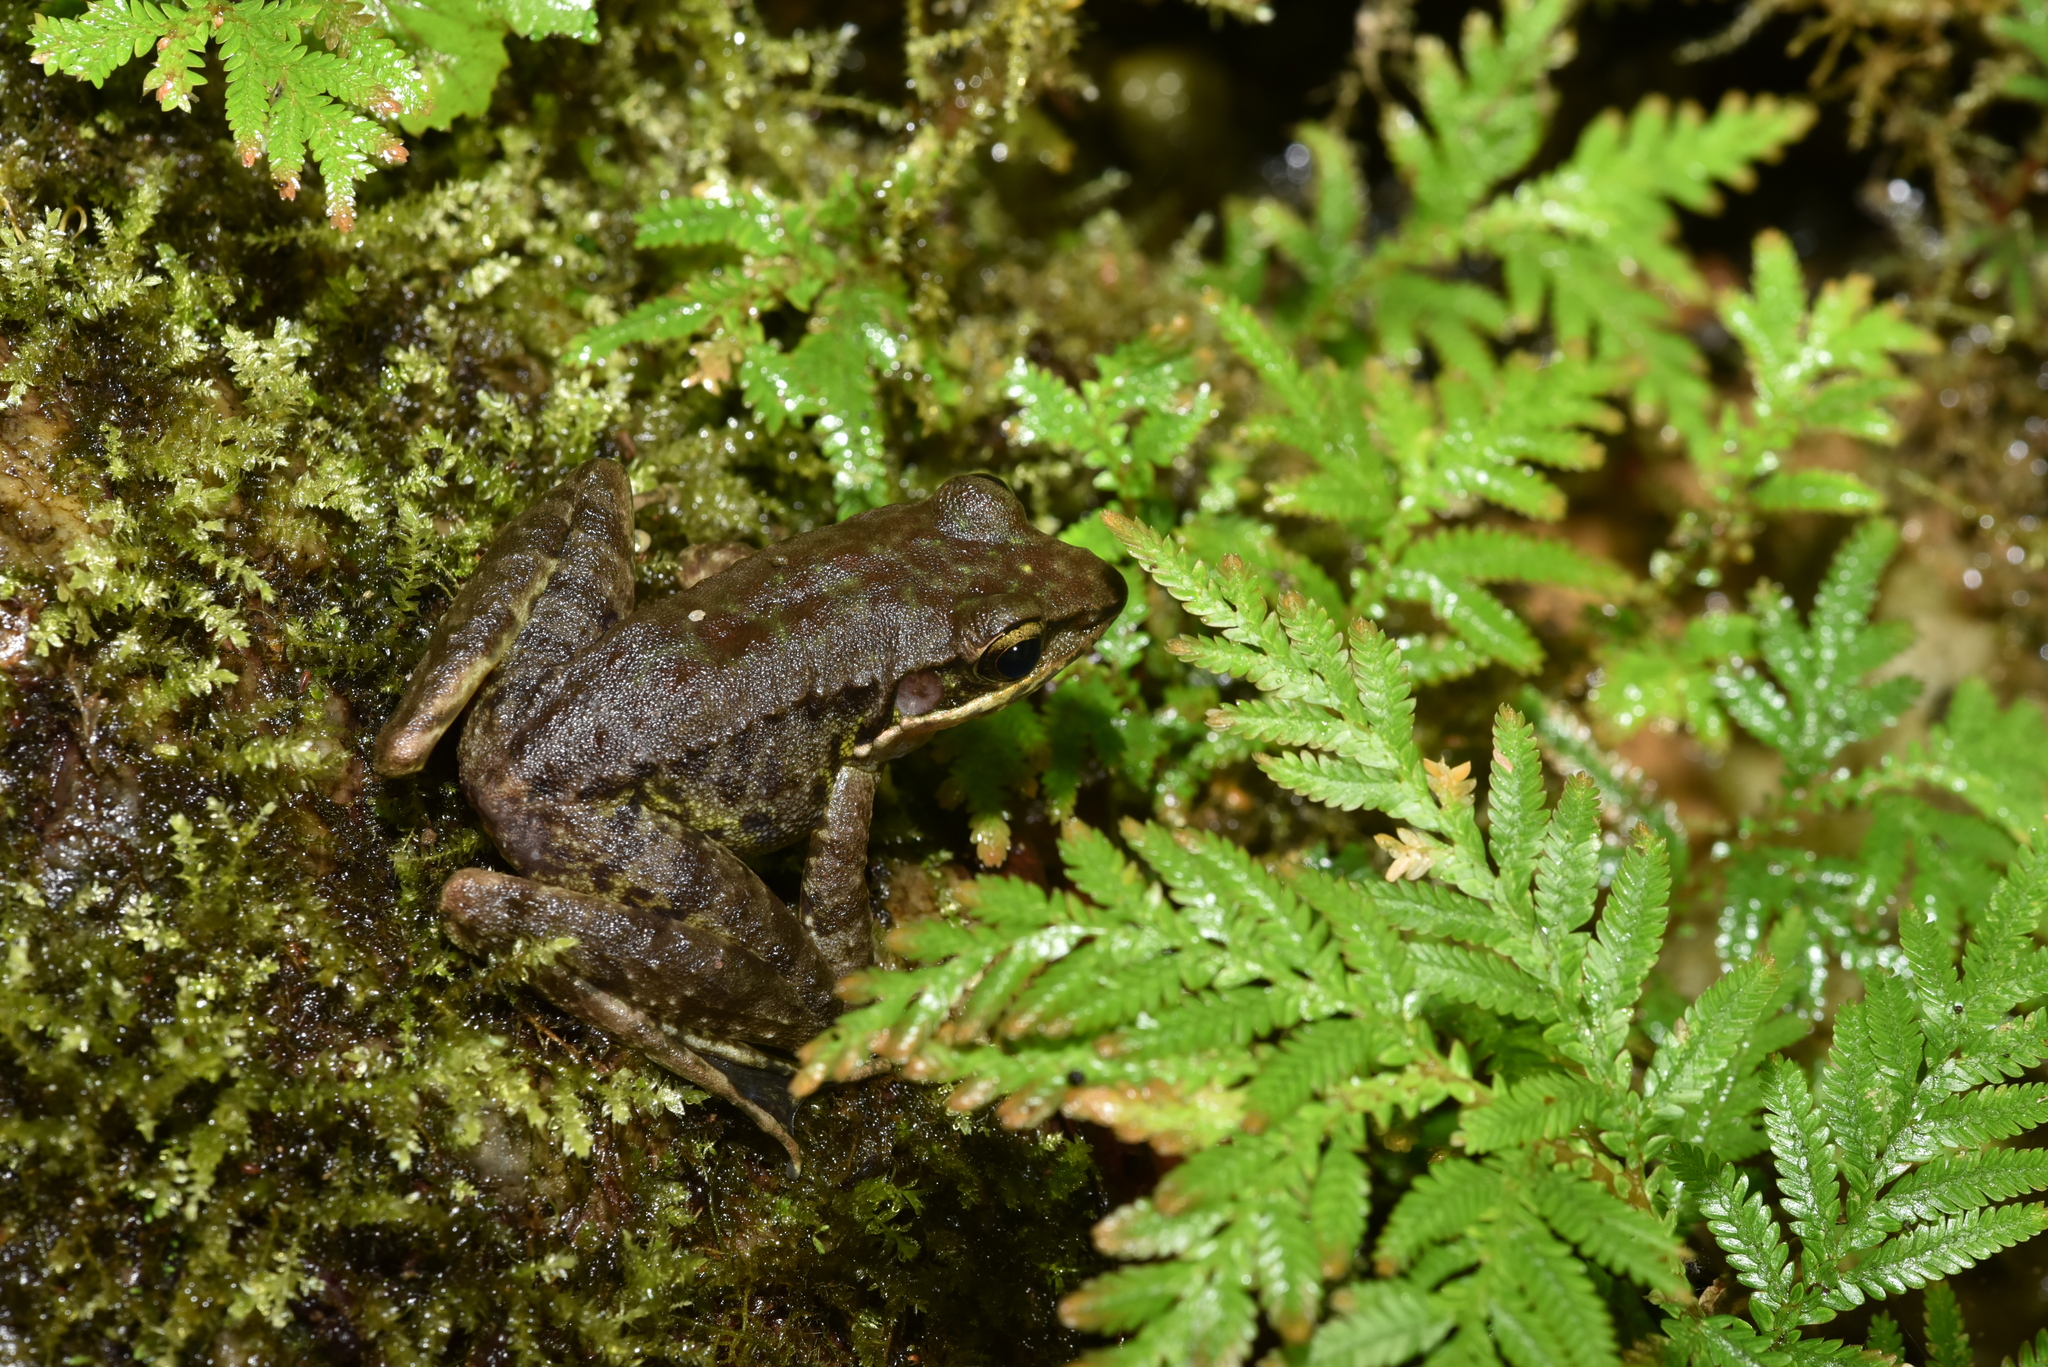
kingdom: Animalia
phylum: Chordata
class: Amphibia
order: Anura
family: Ranidae
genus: Odorrana
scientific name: Odorrana swinhoana
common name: Bangkimtsing frog
